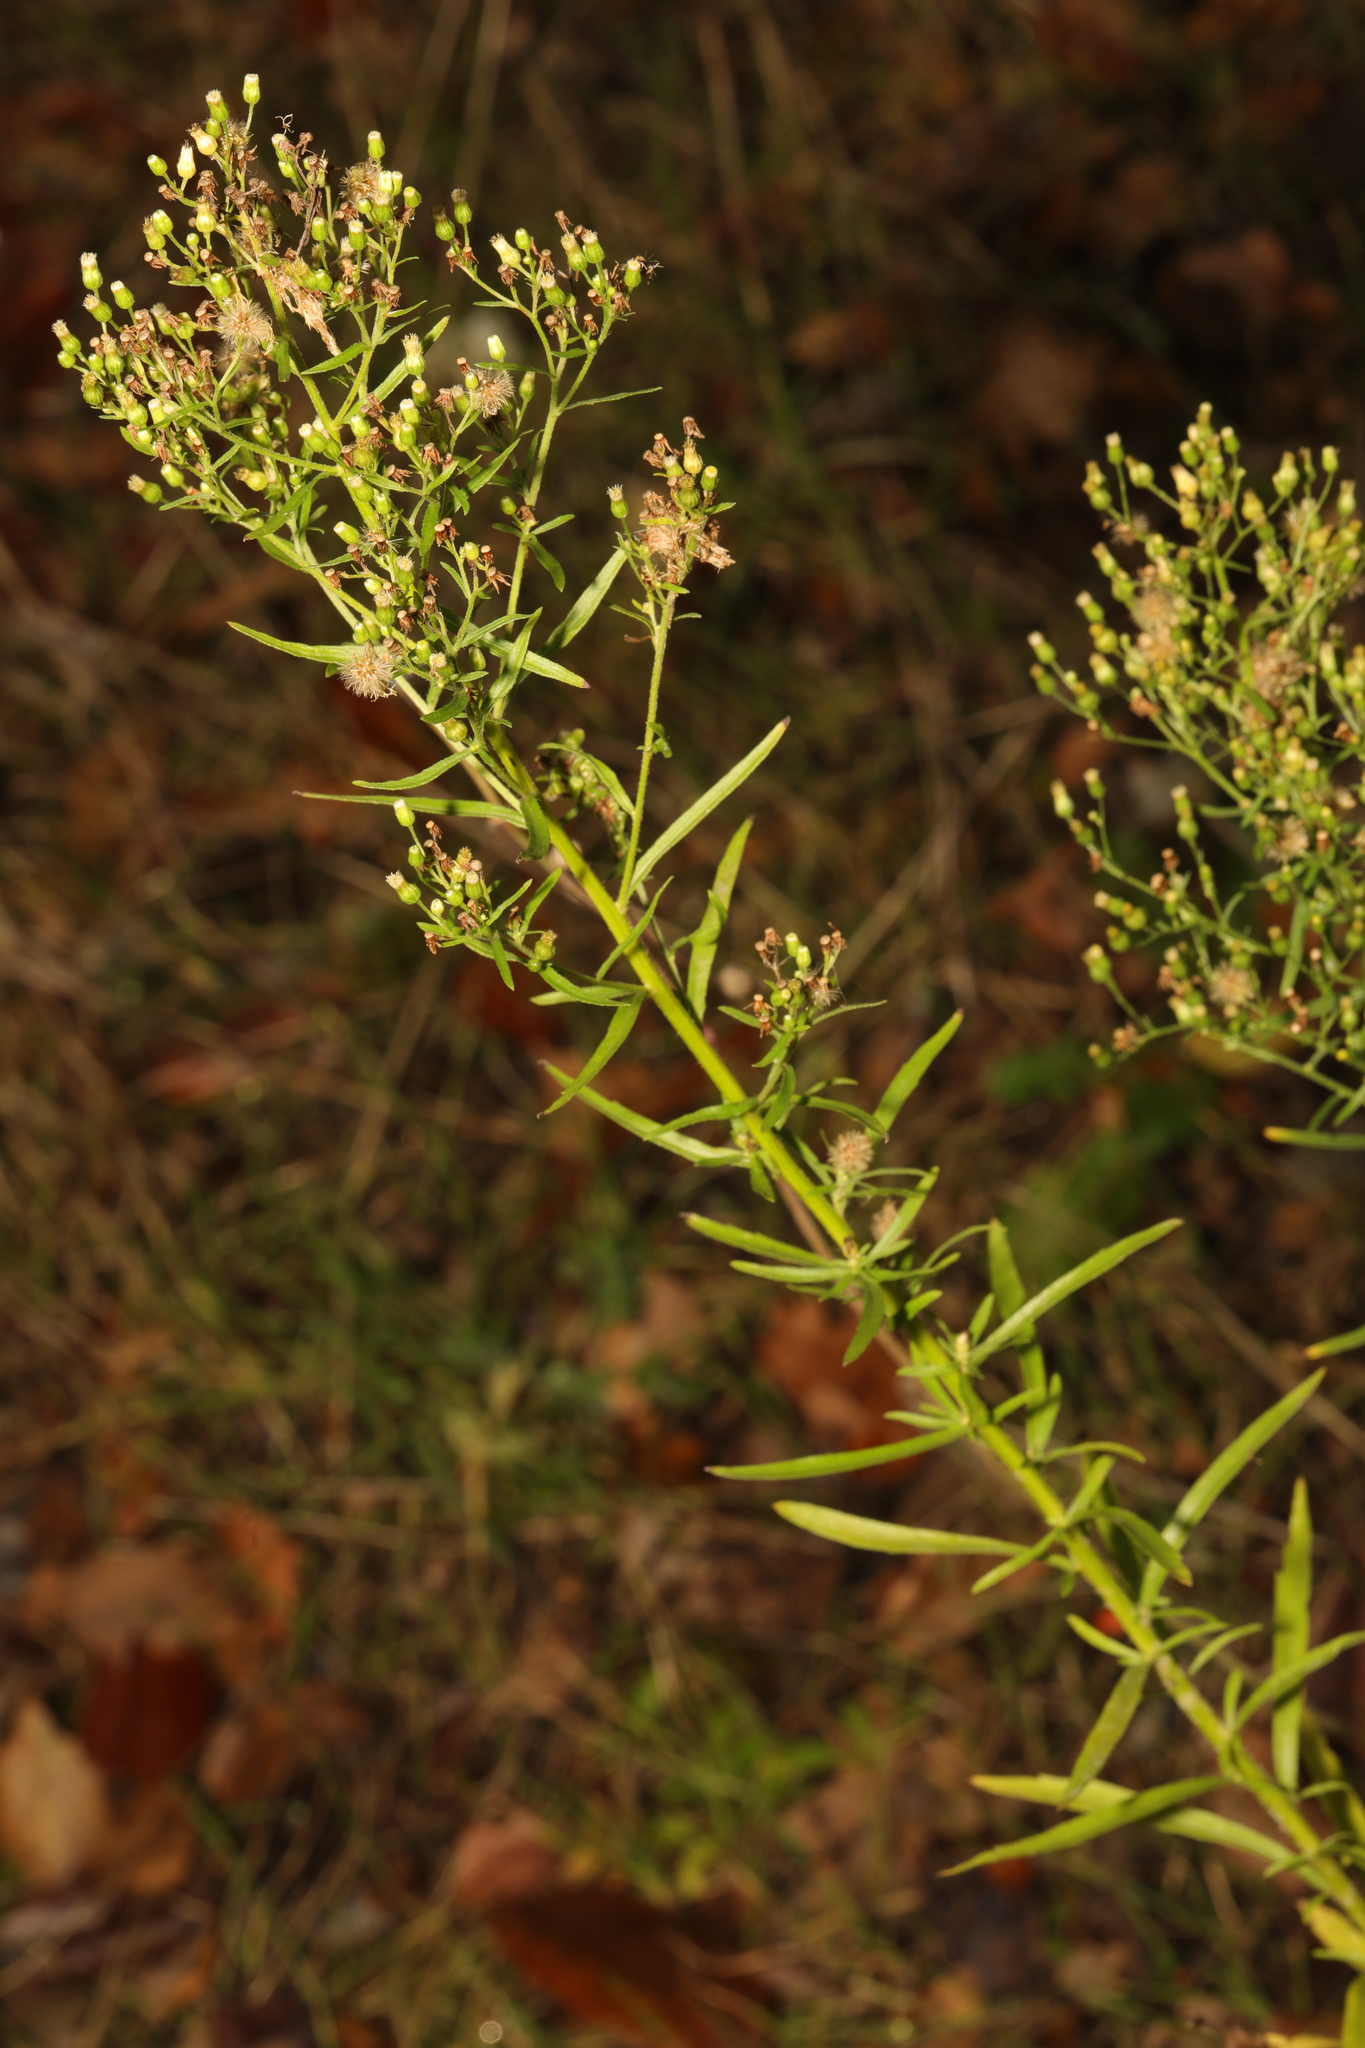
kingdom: Plantae
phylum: Tracheophyta
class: Magnoliopsida
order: Asterales
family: Asteraceae
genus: Erigeron
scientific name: Erigeron canadensis
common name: Canadian fleabane
